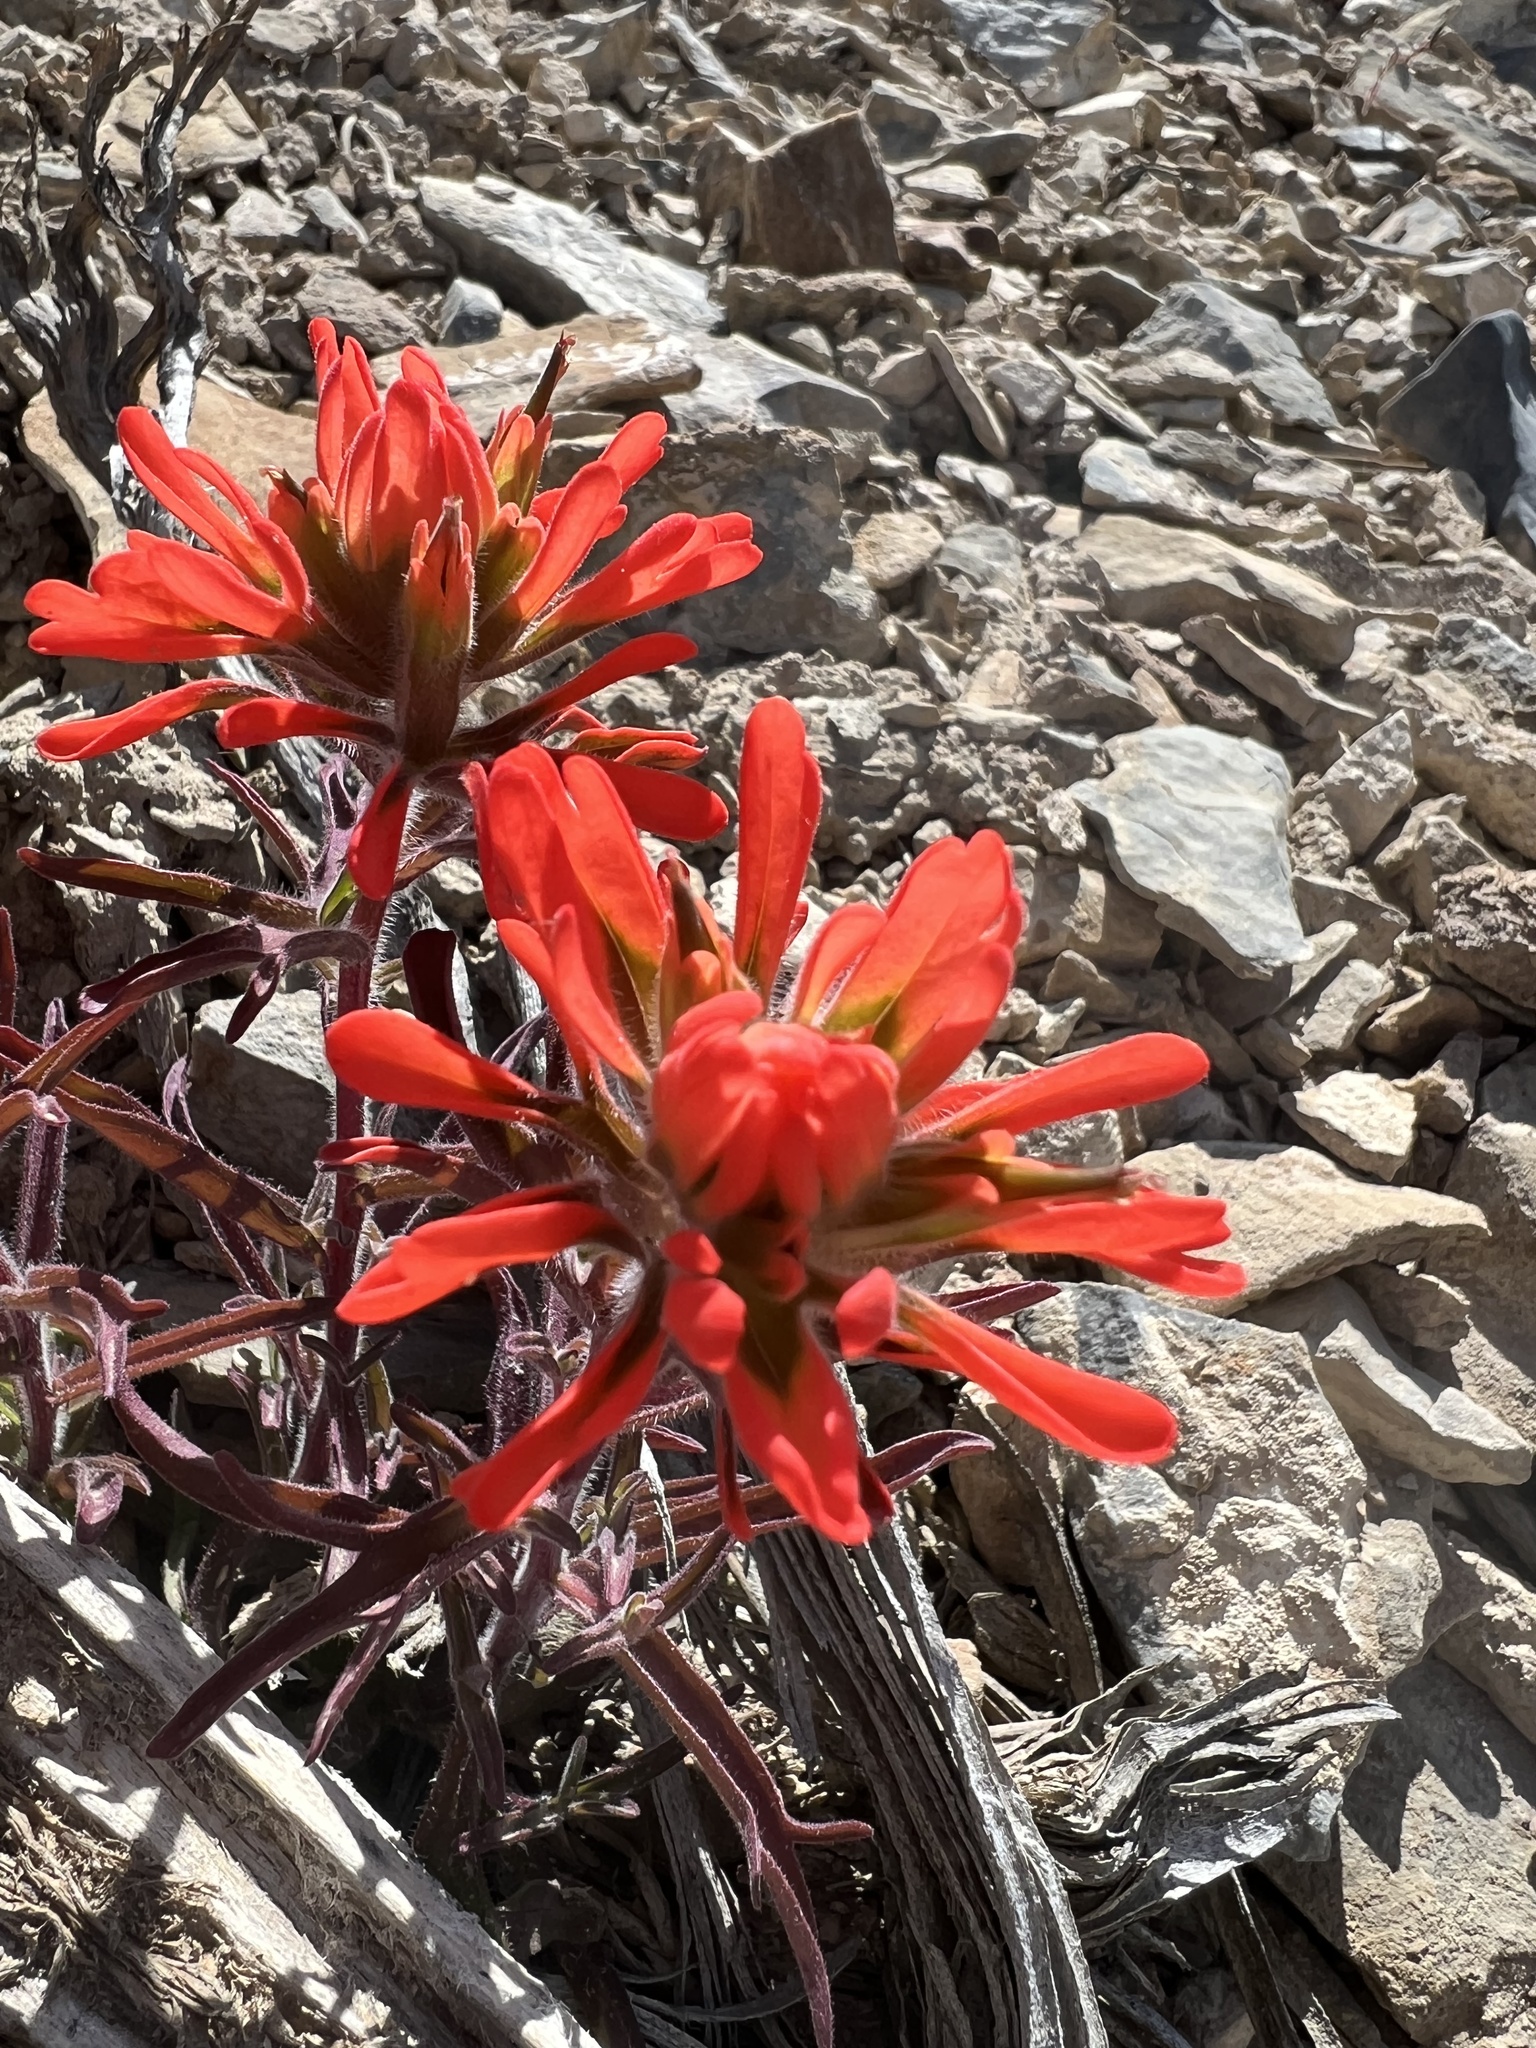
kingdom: Plantae
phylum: Tracheophyta
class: Magnoliopsida
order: Lamiales
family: Orobanchaceae
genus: Castilleja
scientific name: Castilleja chromosa
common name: Desert paintbrush
